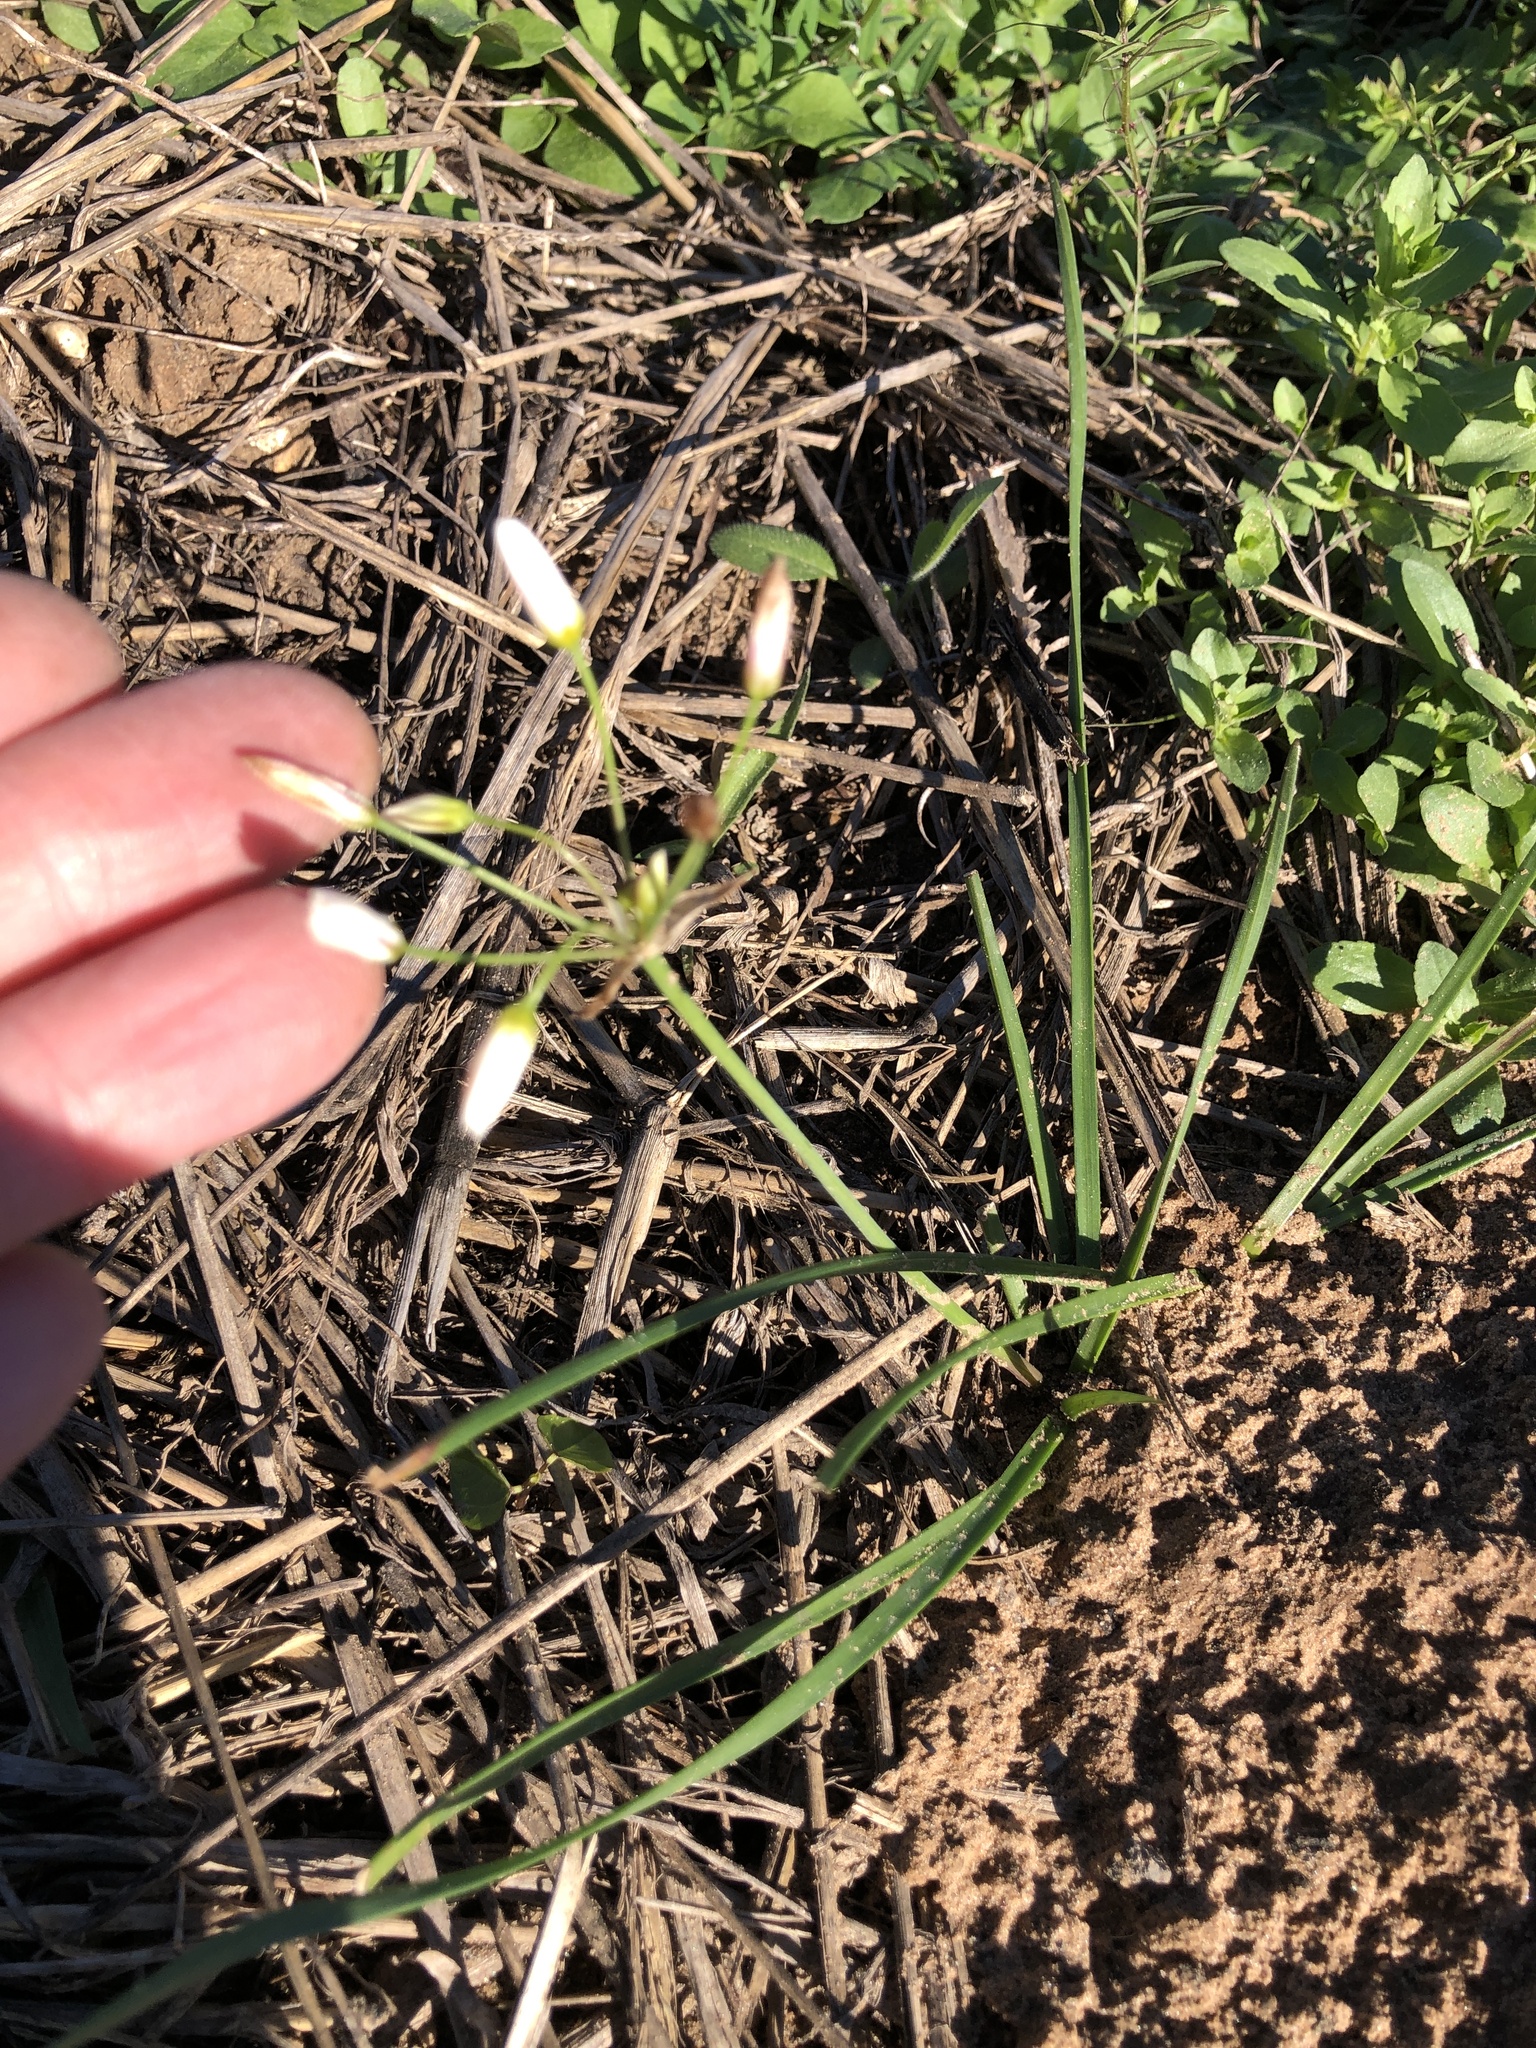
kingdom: Plantae
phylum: Tracheophyta
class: Liliopsida
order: Asparagales
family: Amaryllidaceae
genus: Nothoscordum
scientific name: Nothoscordum bivalve
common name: Crow-poison
